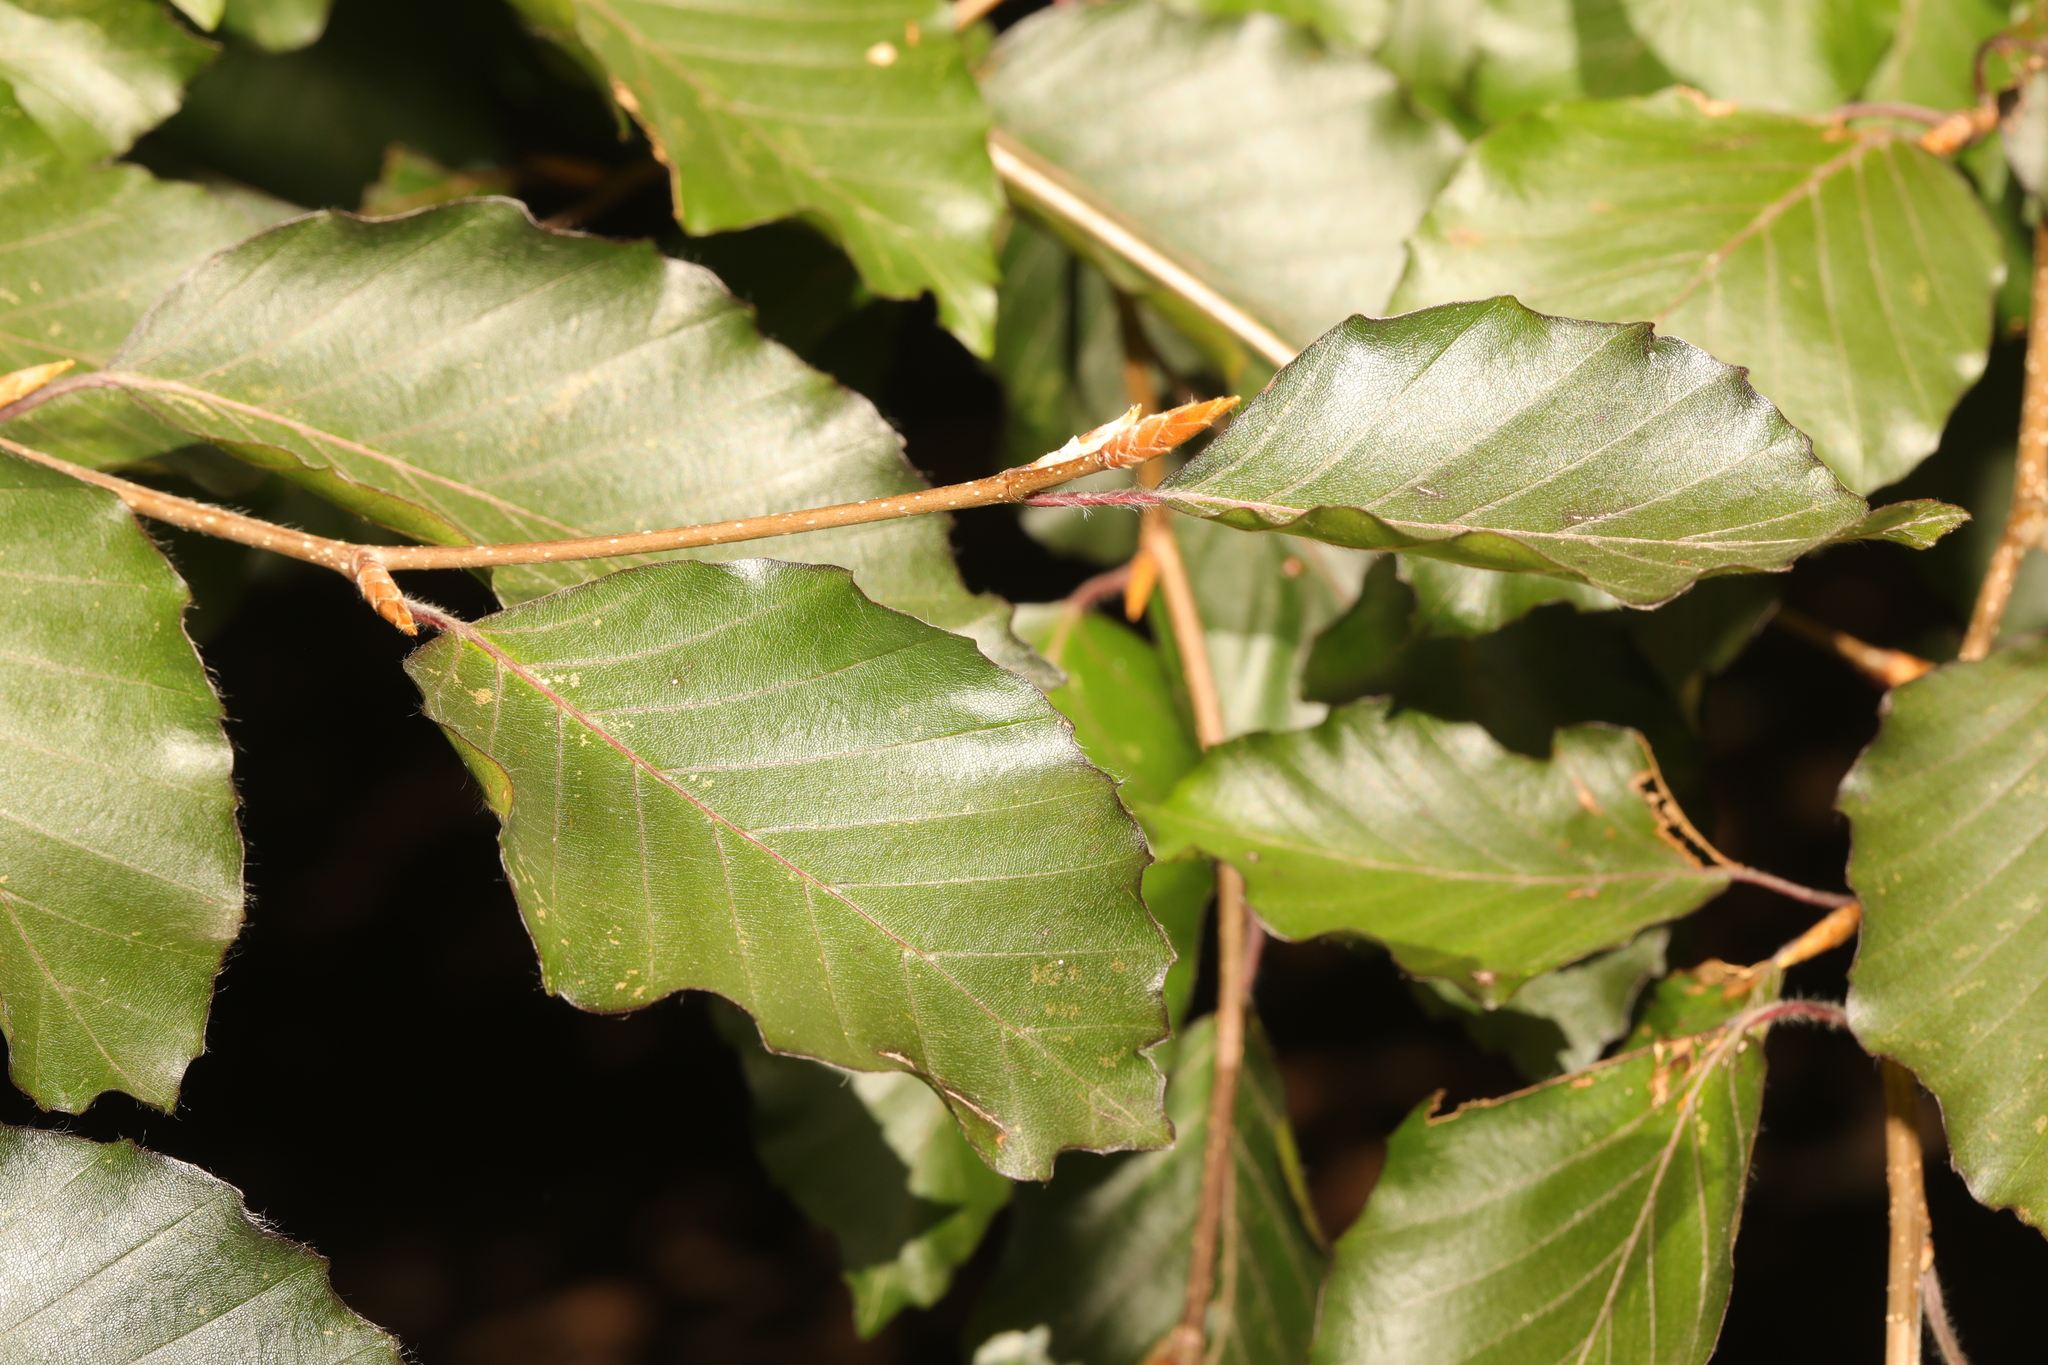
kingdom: Plantae
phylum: Tracheophyta
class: Magnoliopsida
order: Fagales
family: Fagaceae
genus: Fagus
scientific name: Fagus sylvatica
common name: Beech
